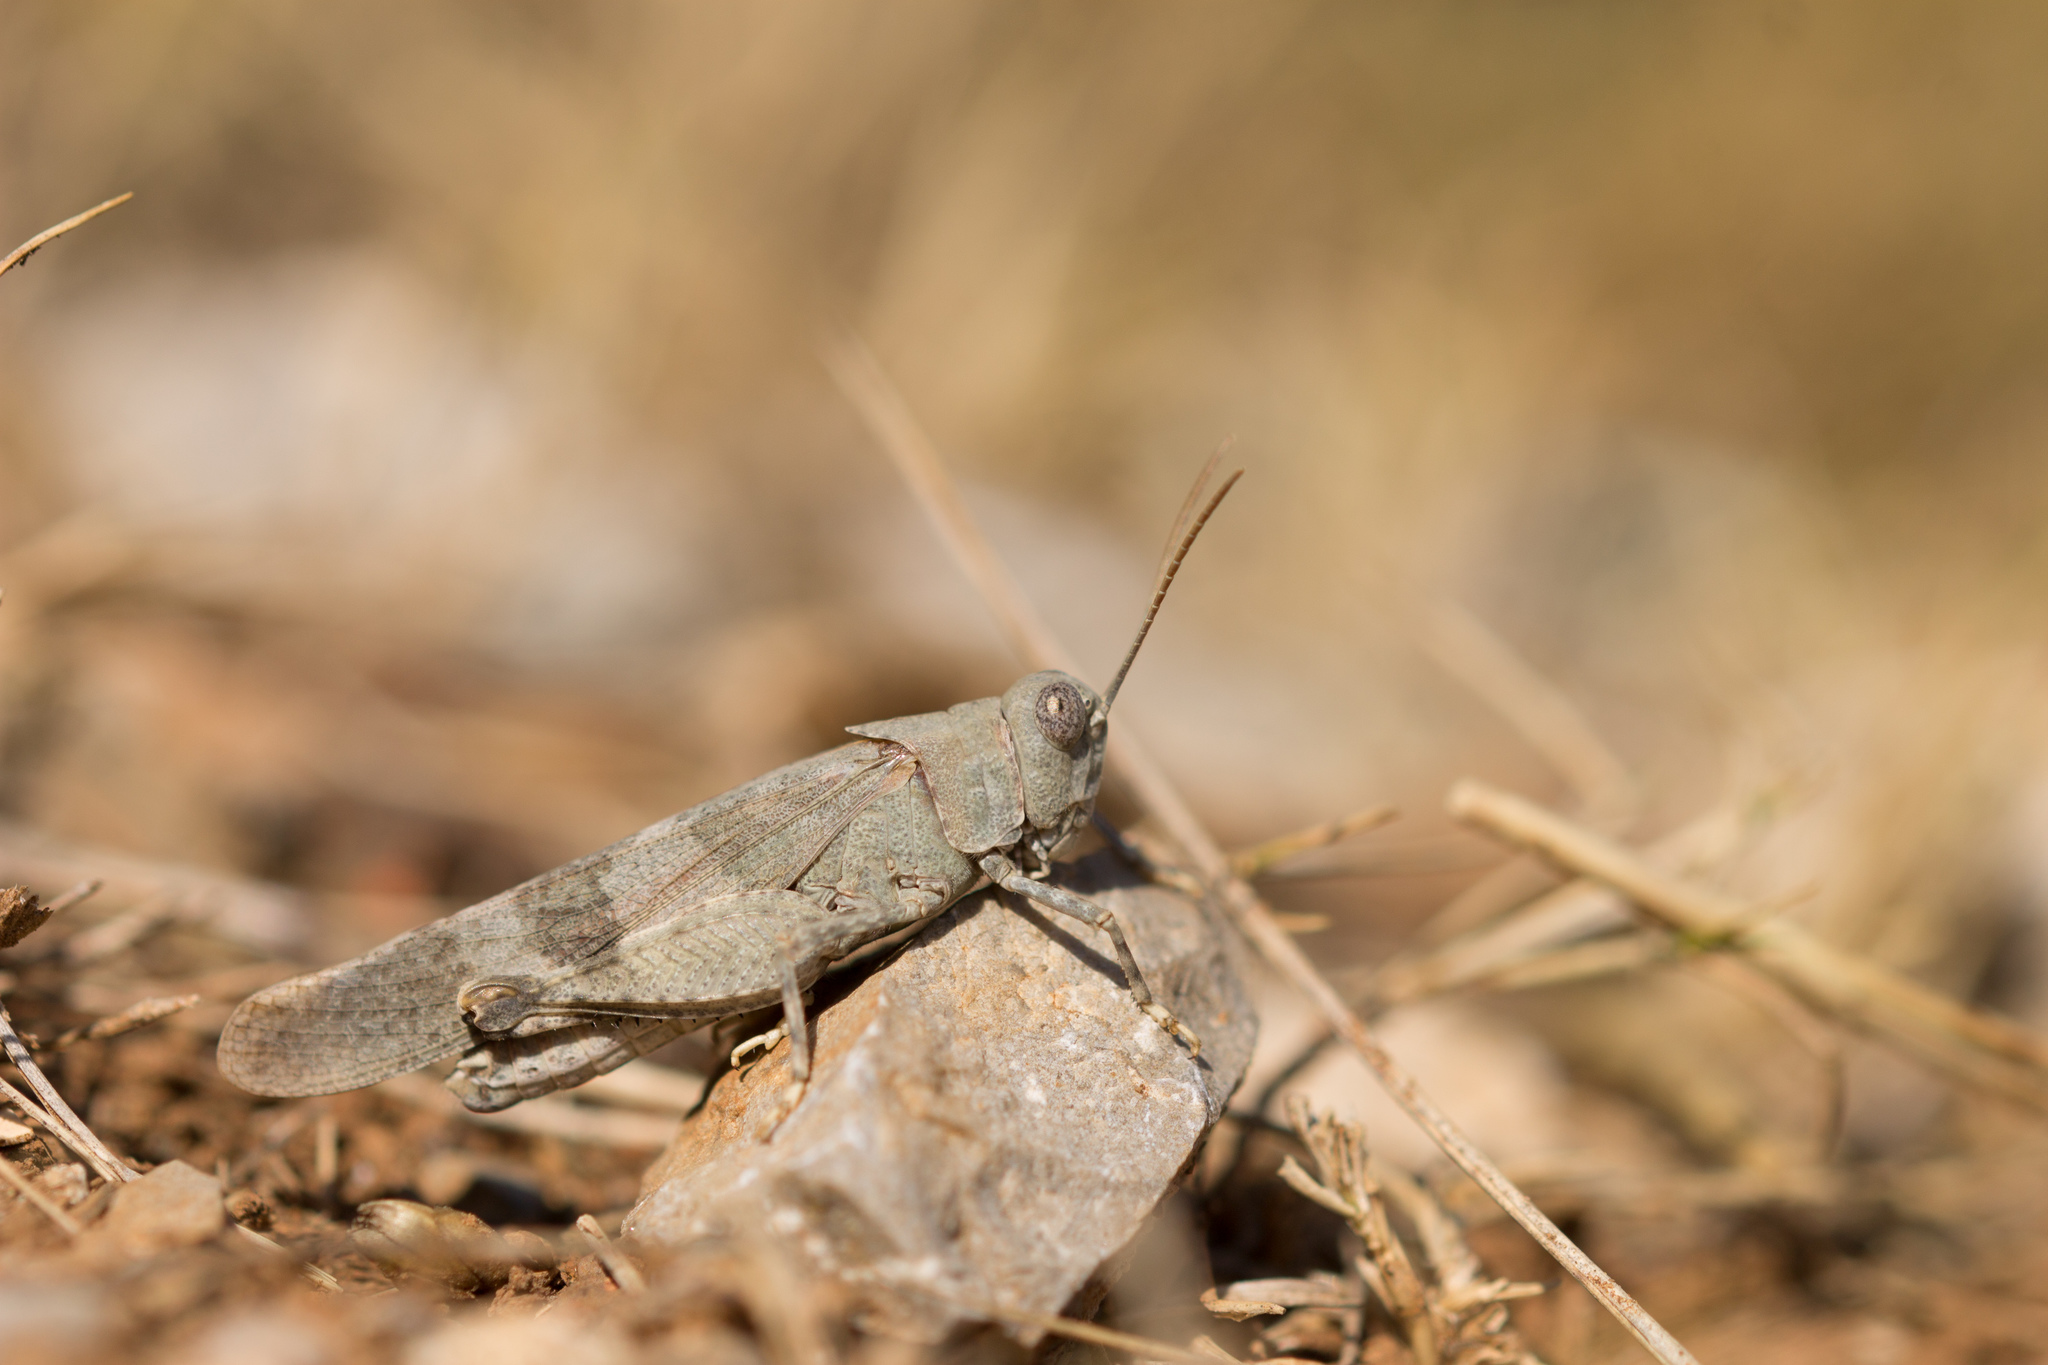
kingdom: Animalia
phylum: Arthropoda
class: Insecta
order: Orthoptera
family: Acrididae
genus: Oedipoda
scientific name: Oedipoda germanica
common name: Red band-winged grasshopper
